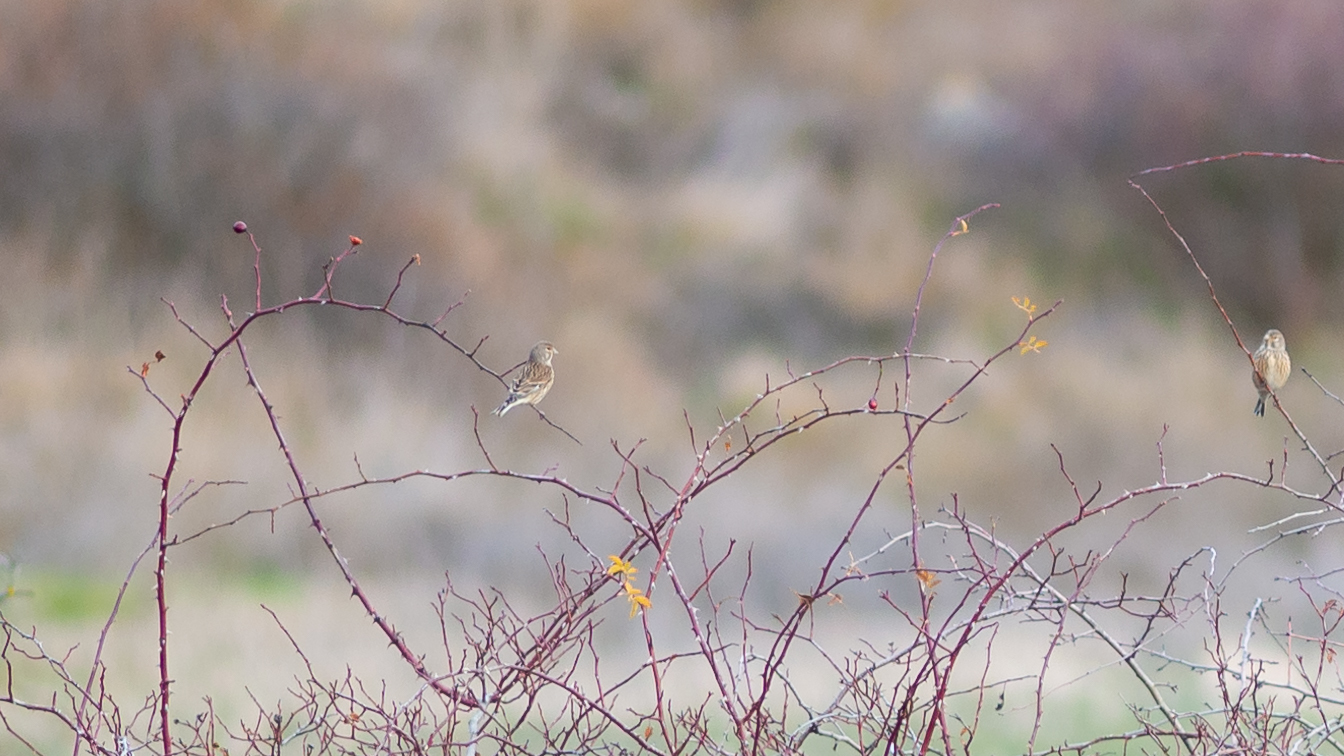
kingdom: Animalia
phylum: Chordata
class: Aves
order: Passeriformes
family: Fringillidae
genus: Linaria
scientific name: Linaria cannabina
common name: Common linnet
